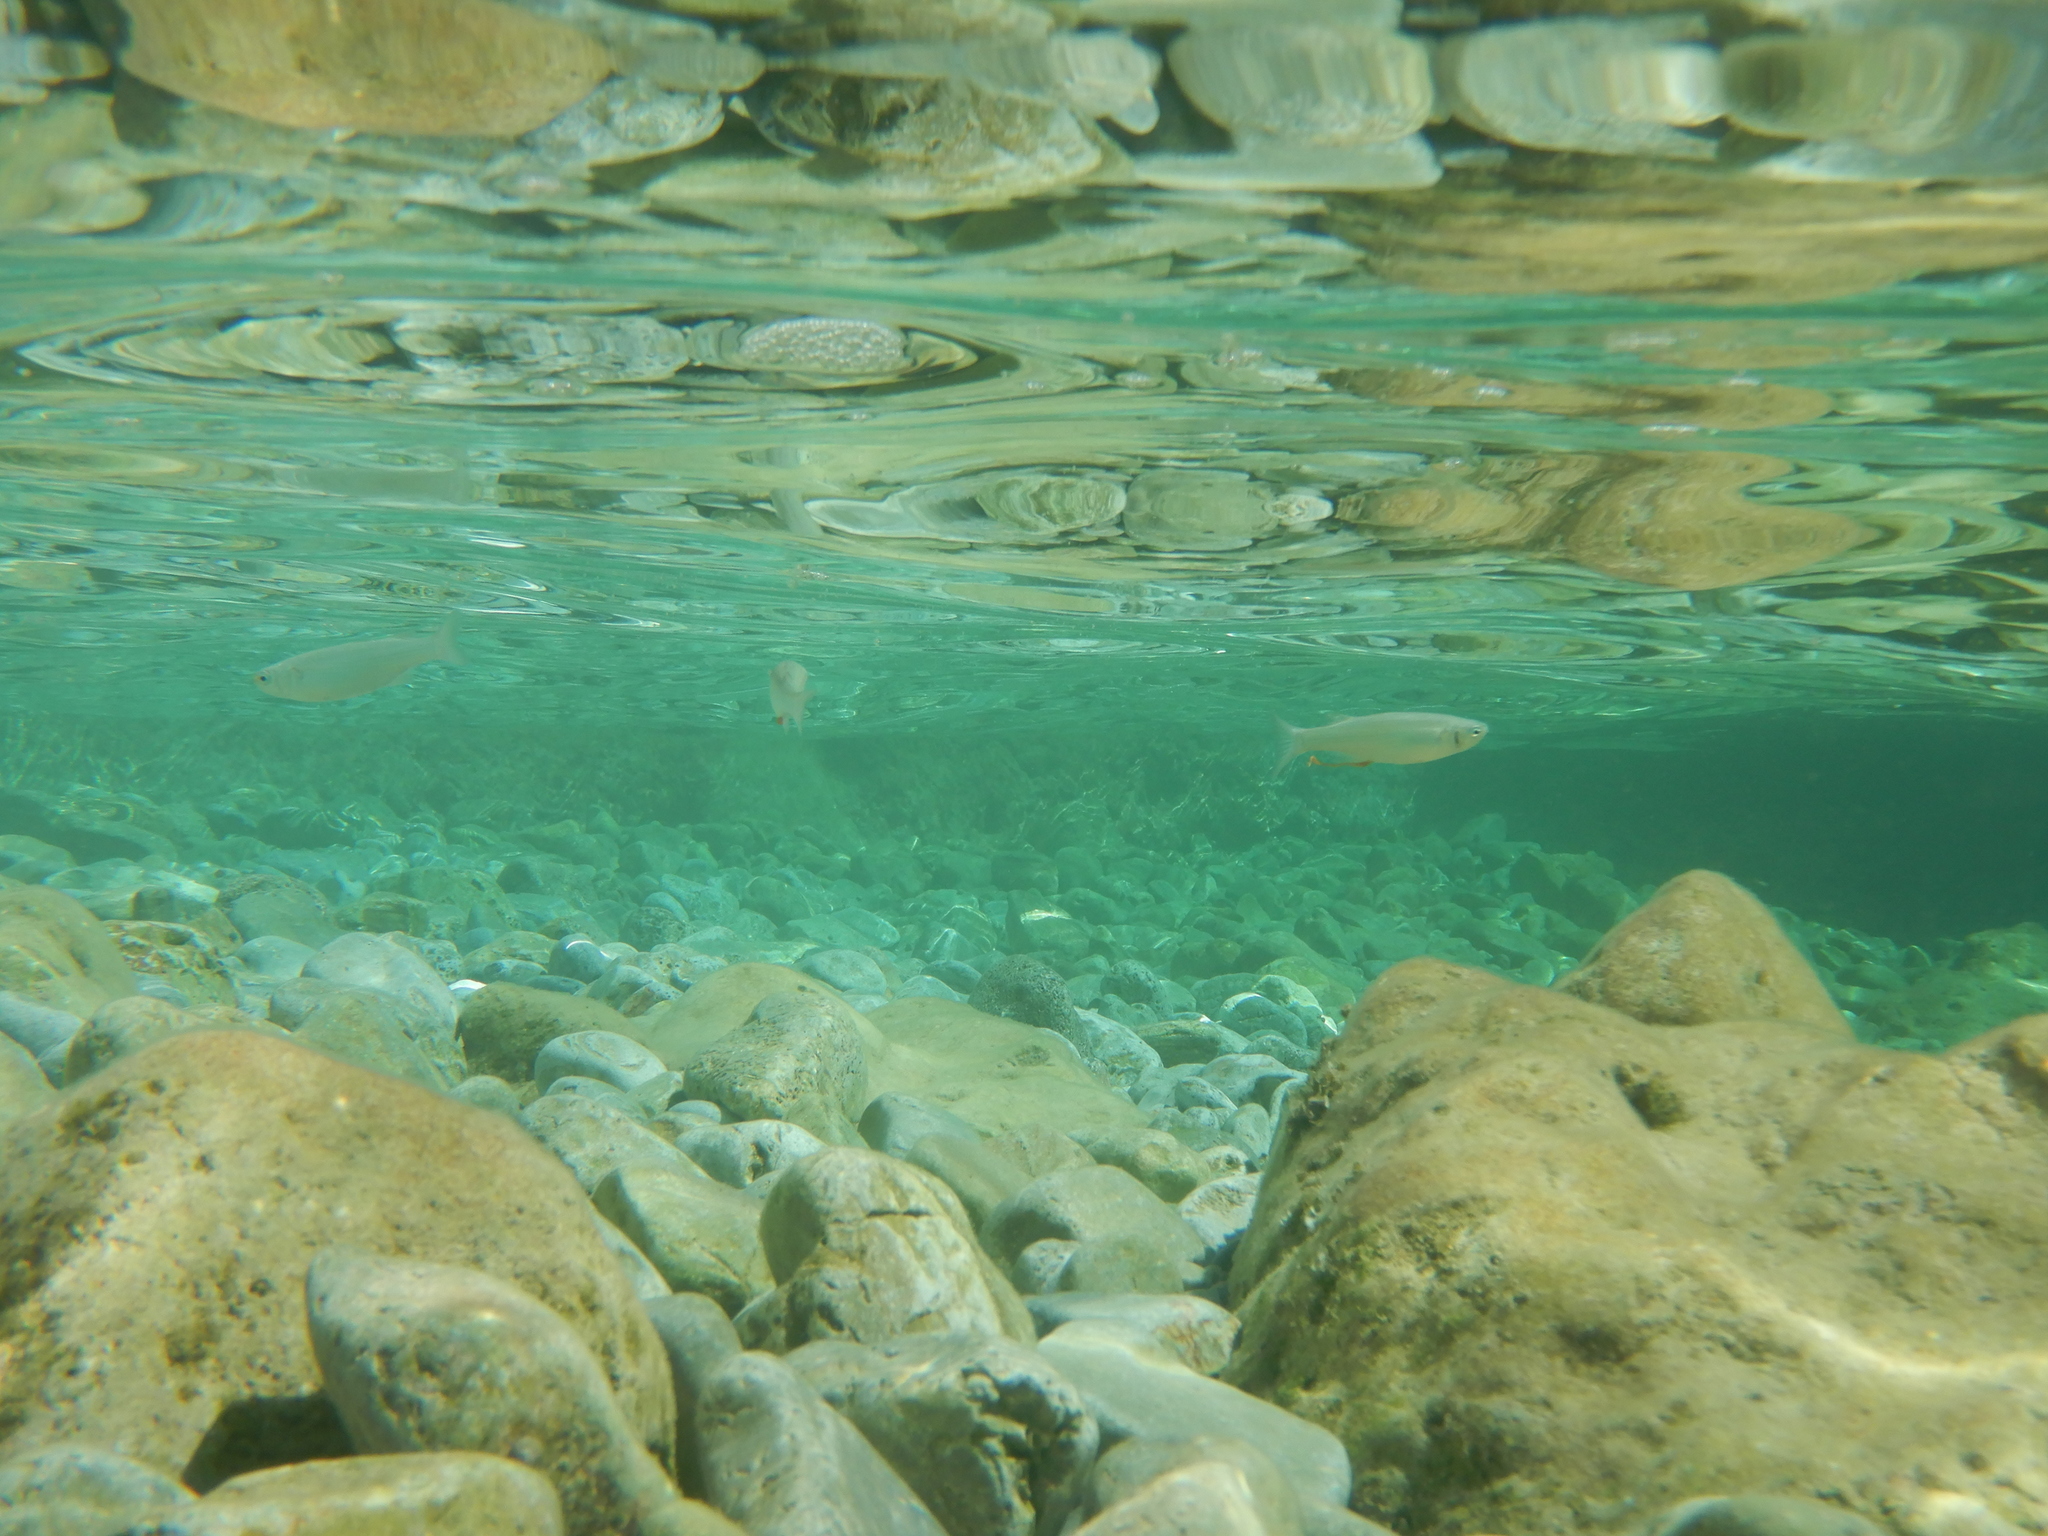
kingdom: Animalia
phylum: Chordata
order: Mugiliformes
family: Mugilidae
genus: Oedalechilus
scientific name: Oedalechilus labeo
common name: Boxlip mullet
